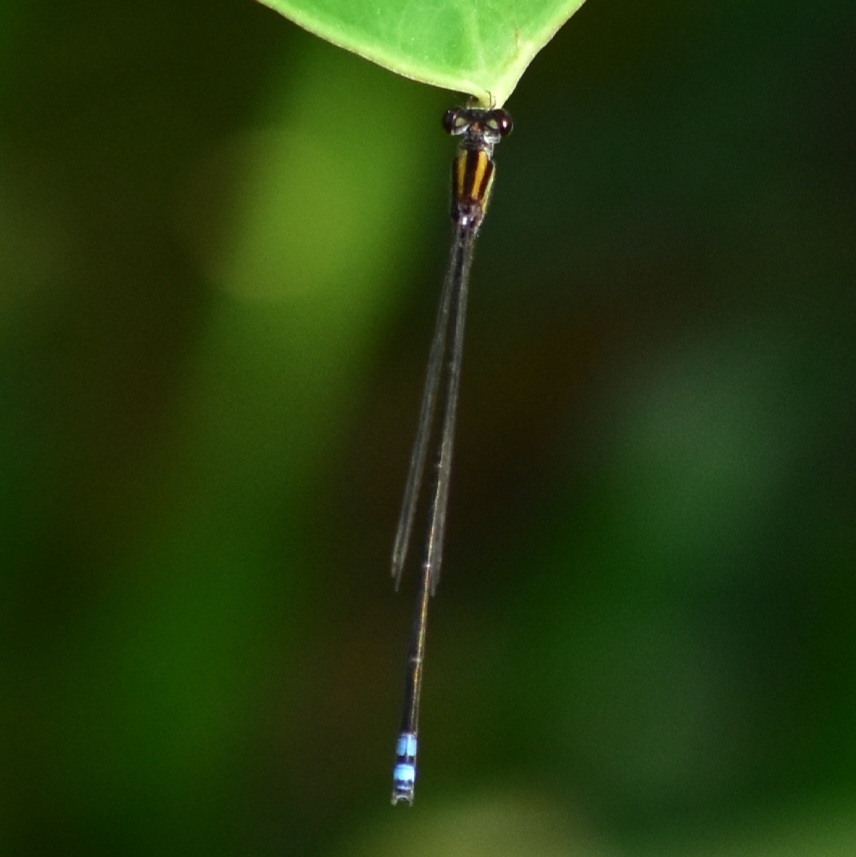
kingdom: Animalia
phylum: Arthropoda
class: Insecta
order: Odonata
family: Coenagrionidae
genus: Pseudagrion
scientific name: Pseudagrion indicum
